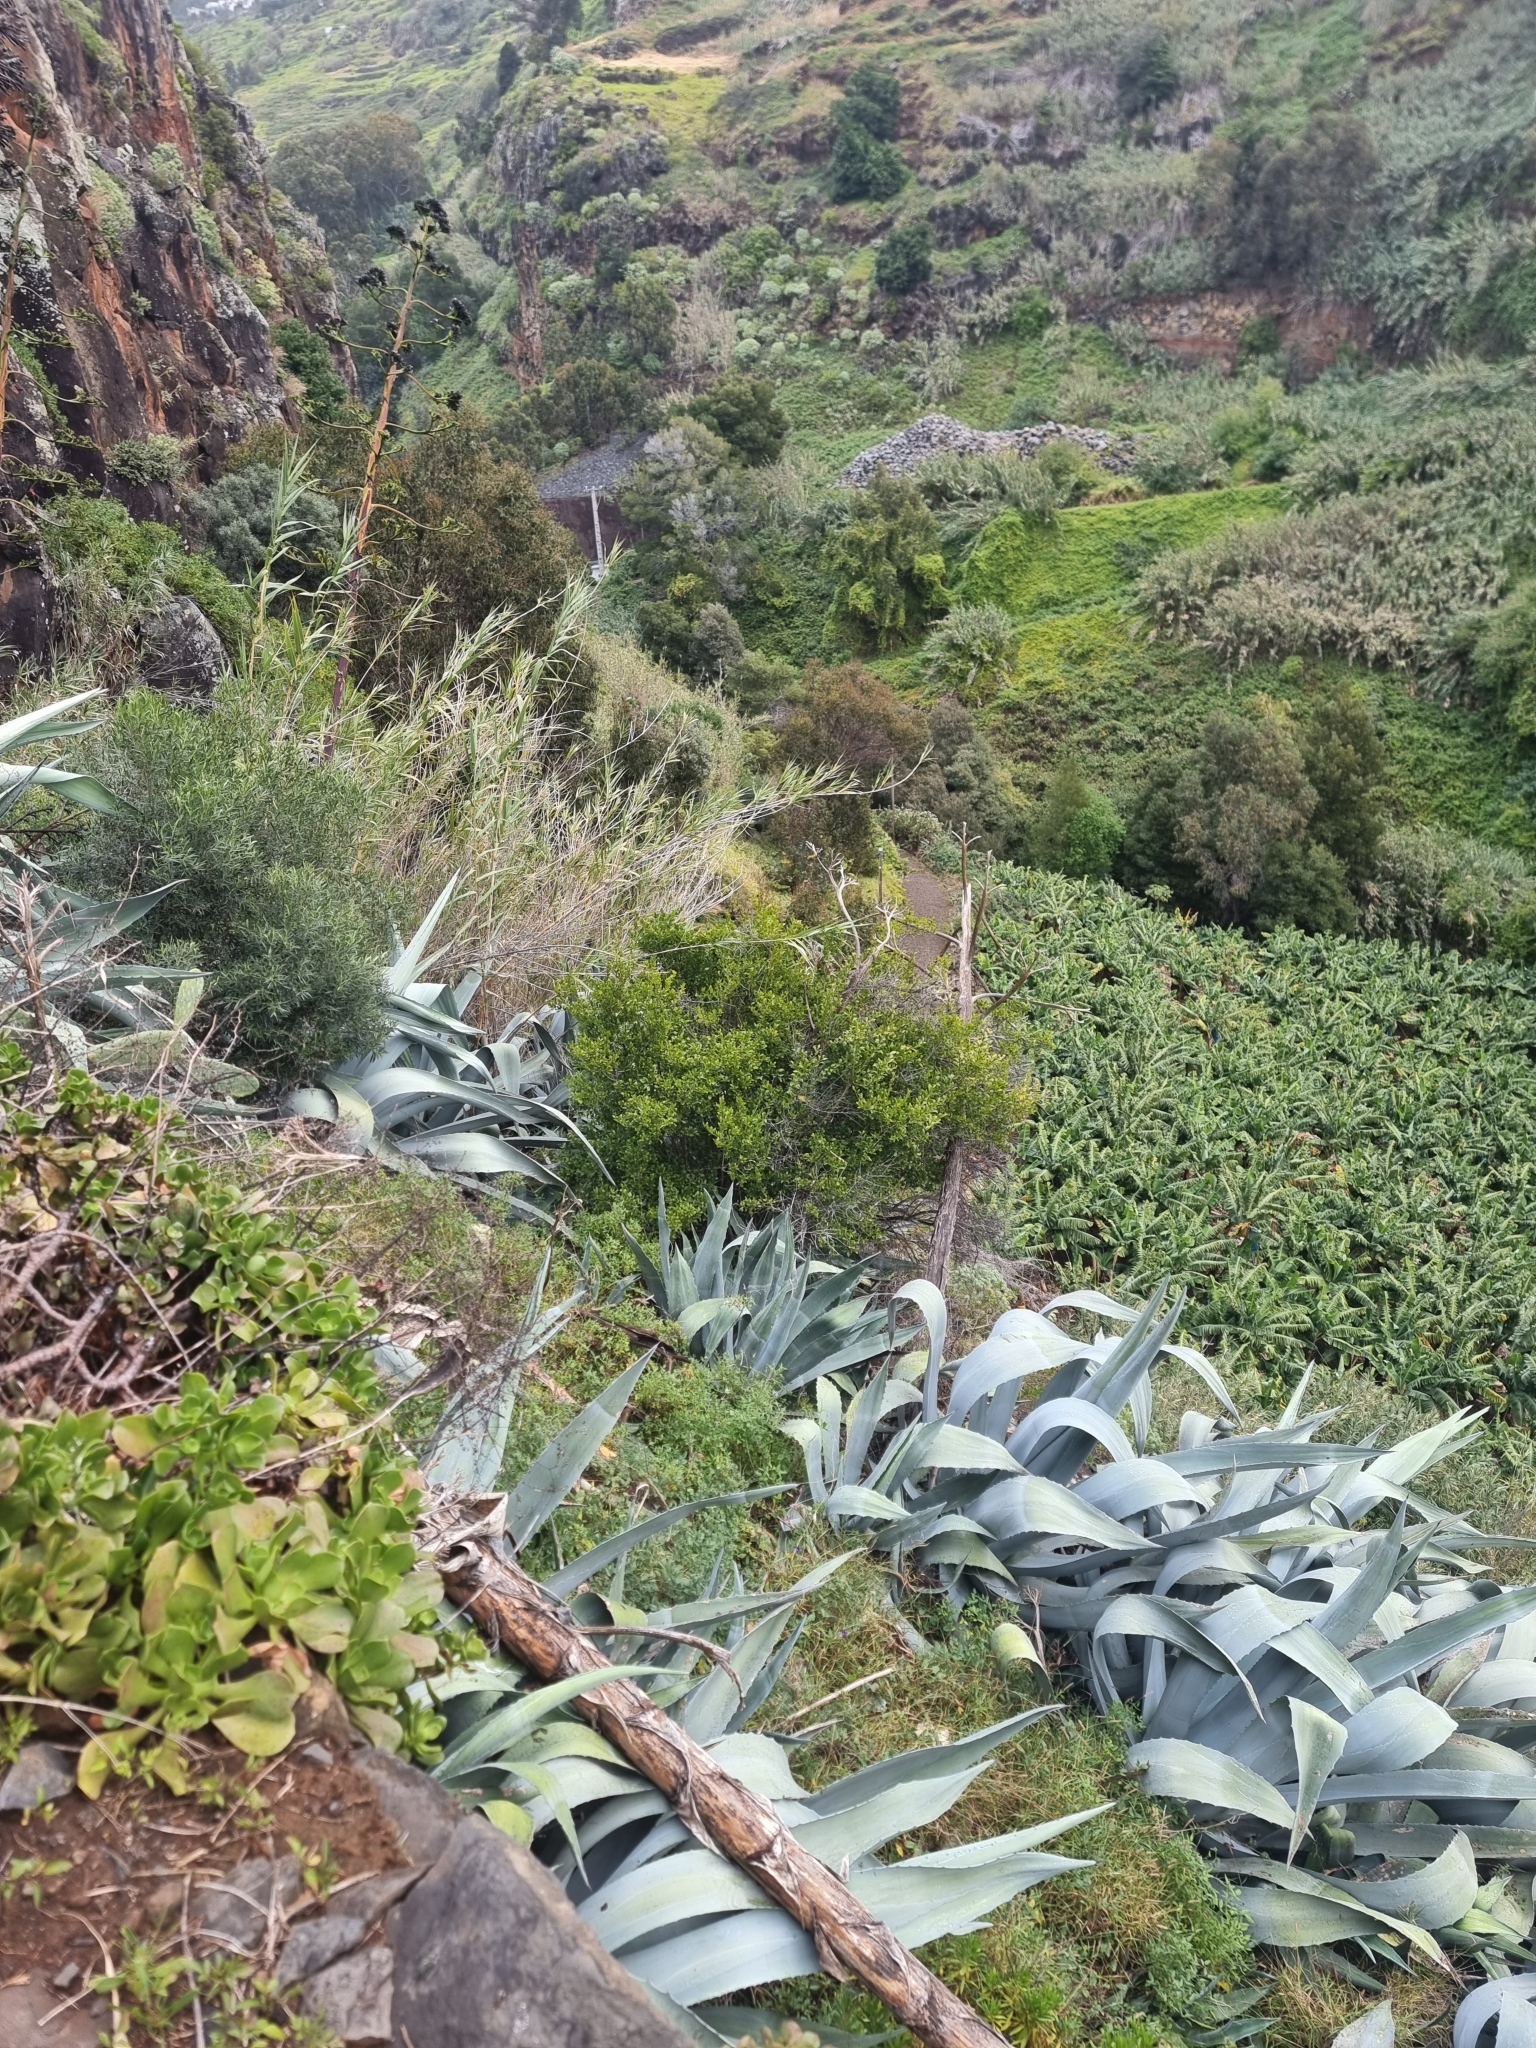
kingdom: Plantae
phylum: Tracheophyta
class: Magnoliopsida
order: Celastrales
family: Celastraceae
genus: Gymnosporia
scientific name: Gymnosporia dryandri
